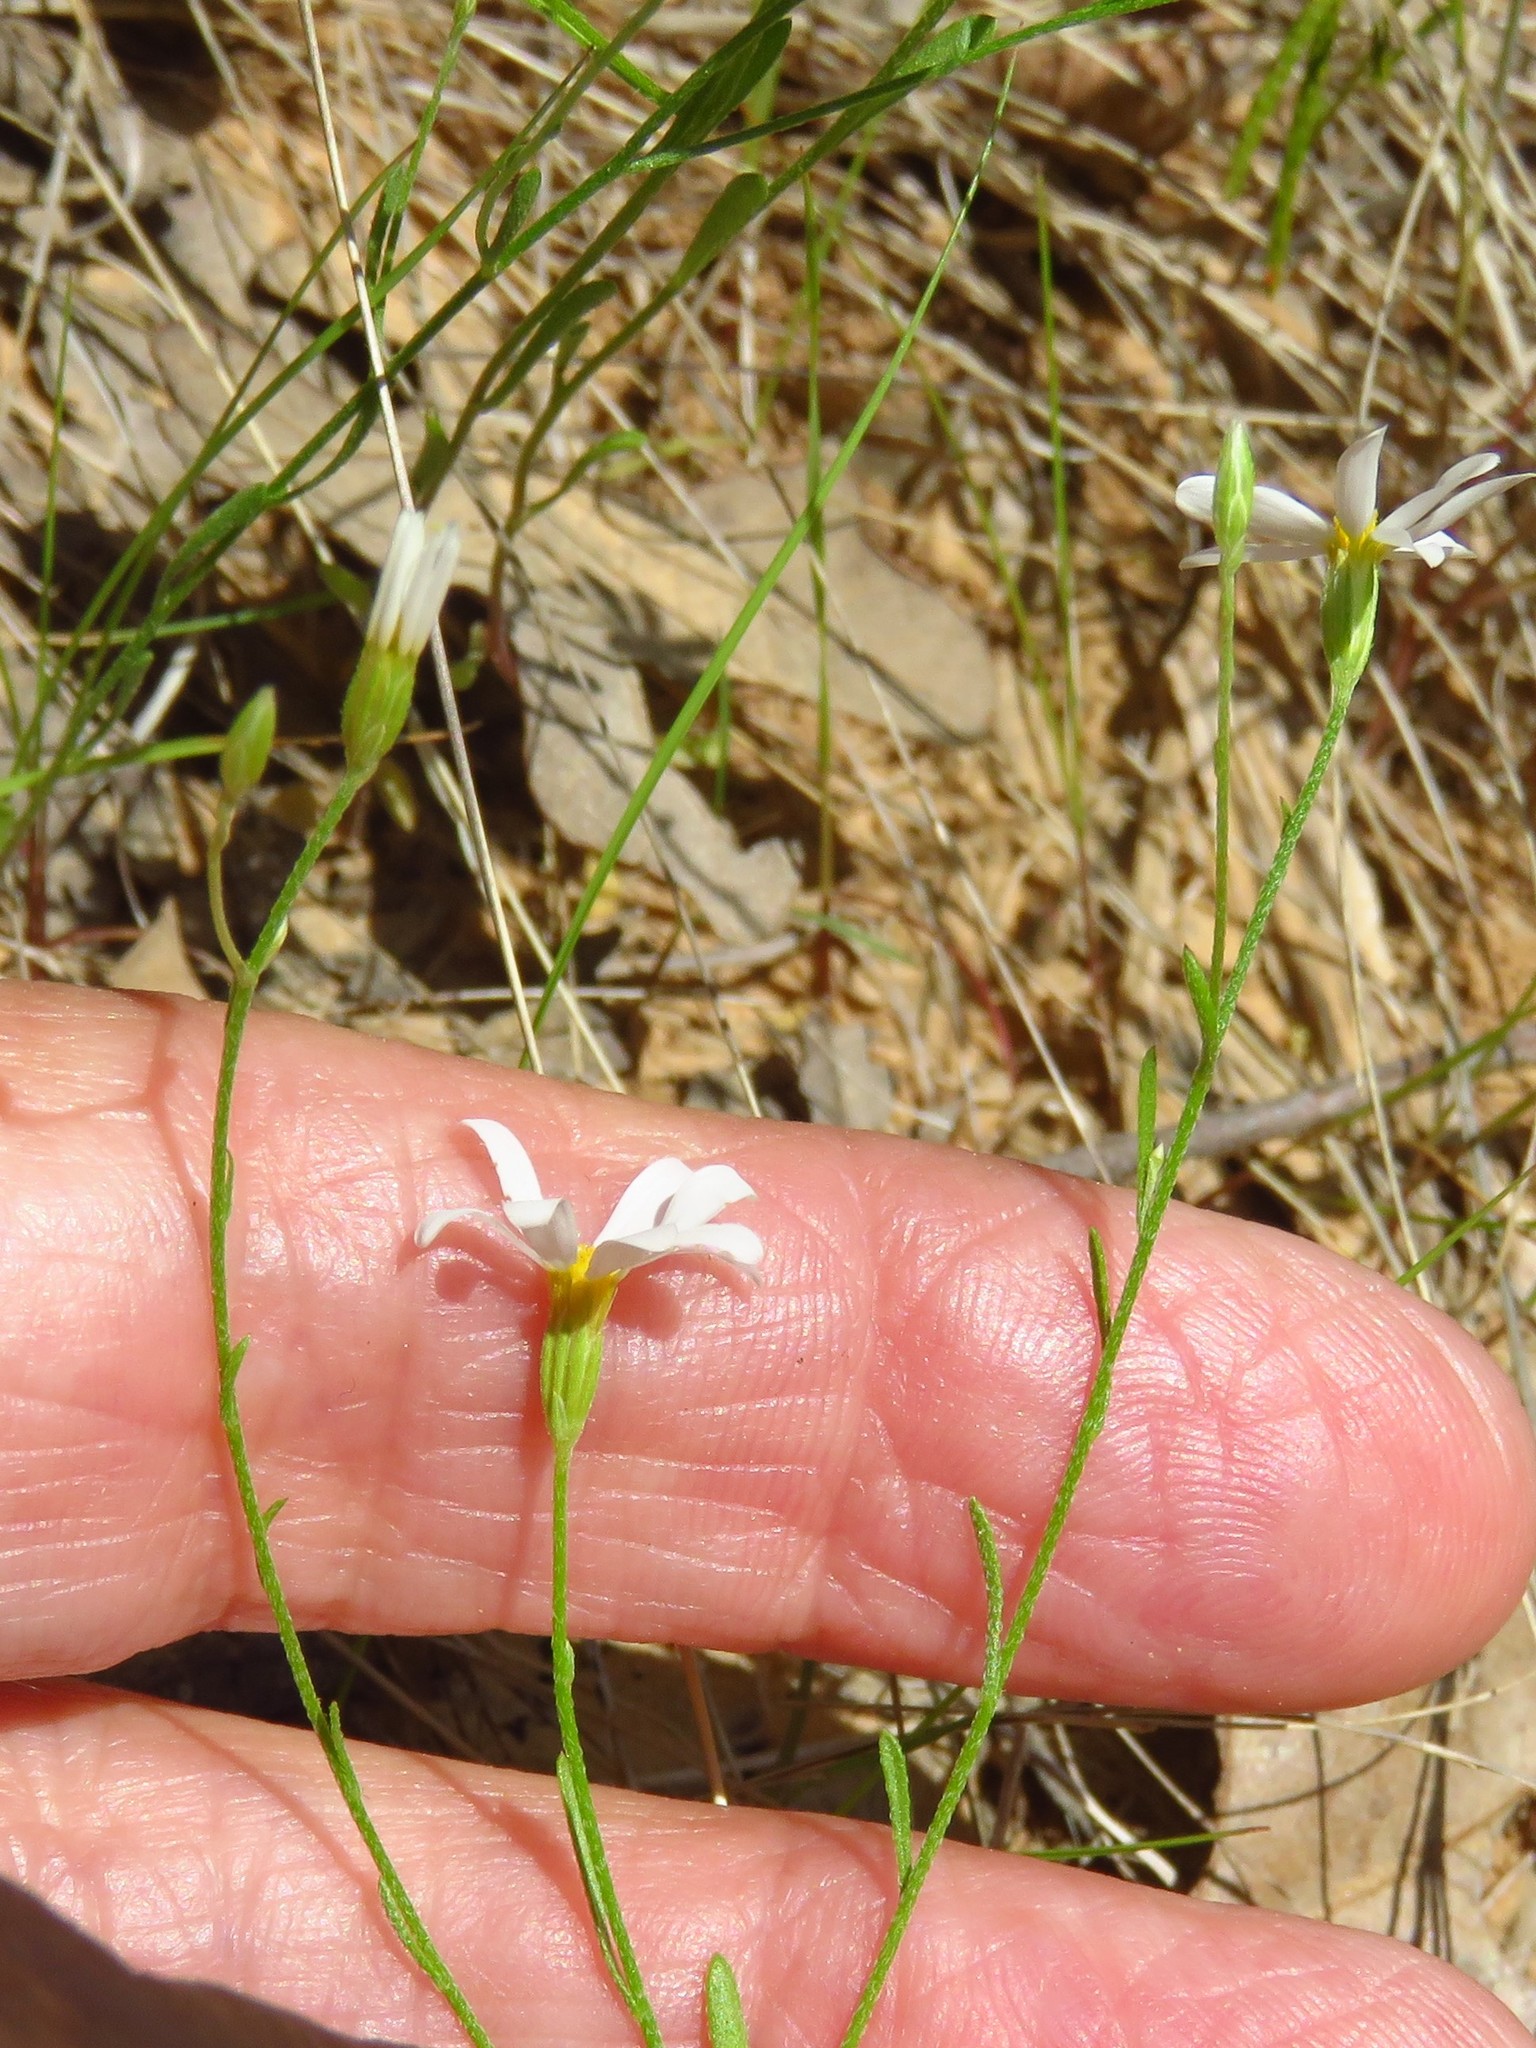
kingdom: Plantae
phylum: Tracheophyta
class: Magnoliopsida
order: Asterales
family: Asteraceae
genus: Chaetopappa
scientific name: Chaetopappa asteroides
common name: Tiny lazy daisy
